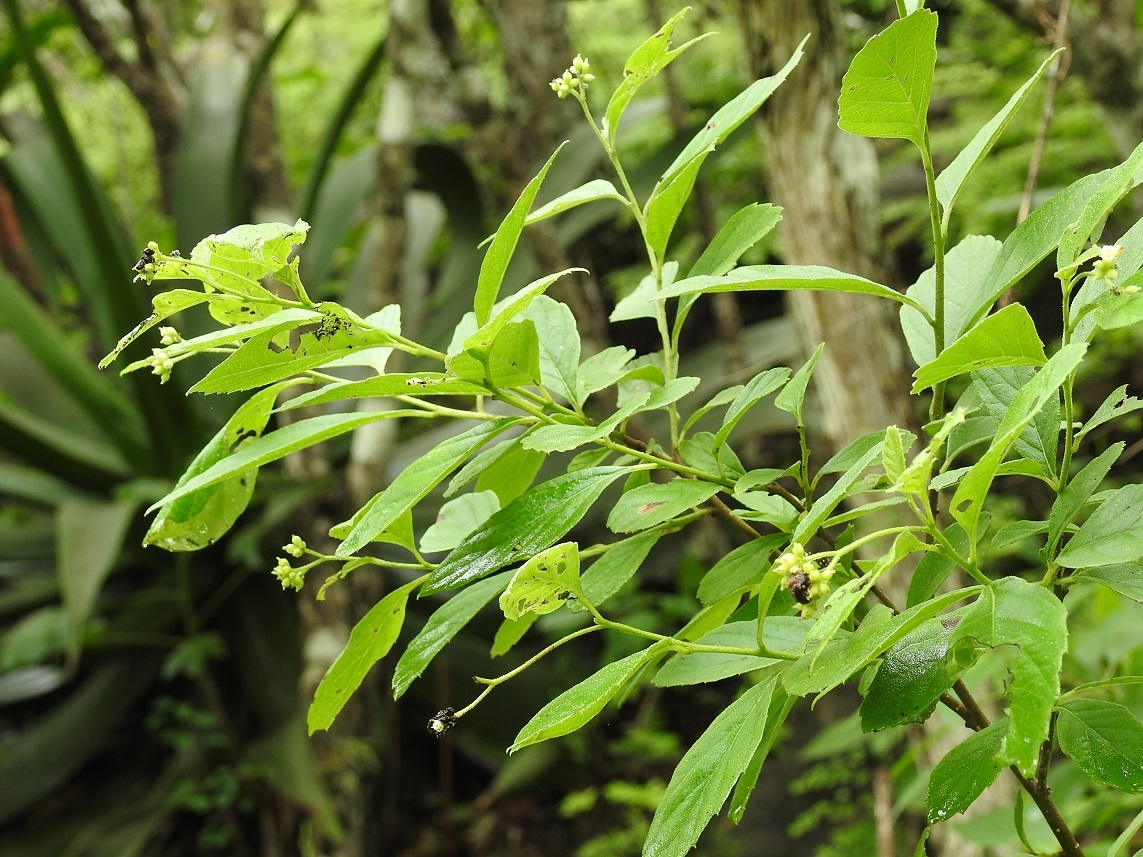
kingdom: Plantae
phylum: Tracheophyta
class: Magnoliopsida
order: Boraginales
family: Cordiaceae
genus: Varronia
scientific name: Varronia foliosa
